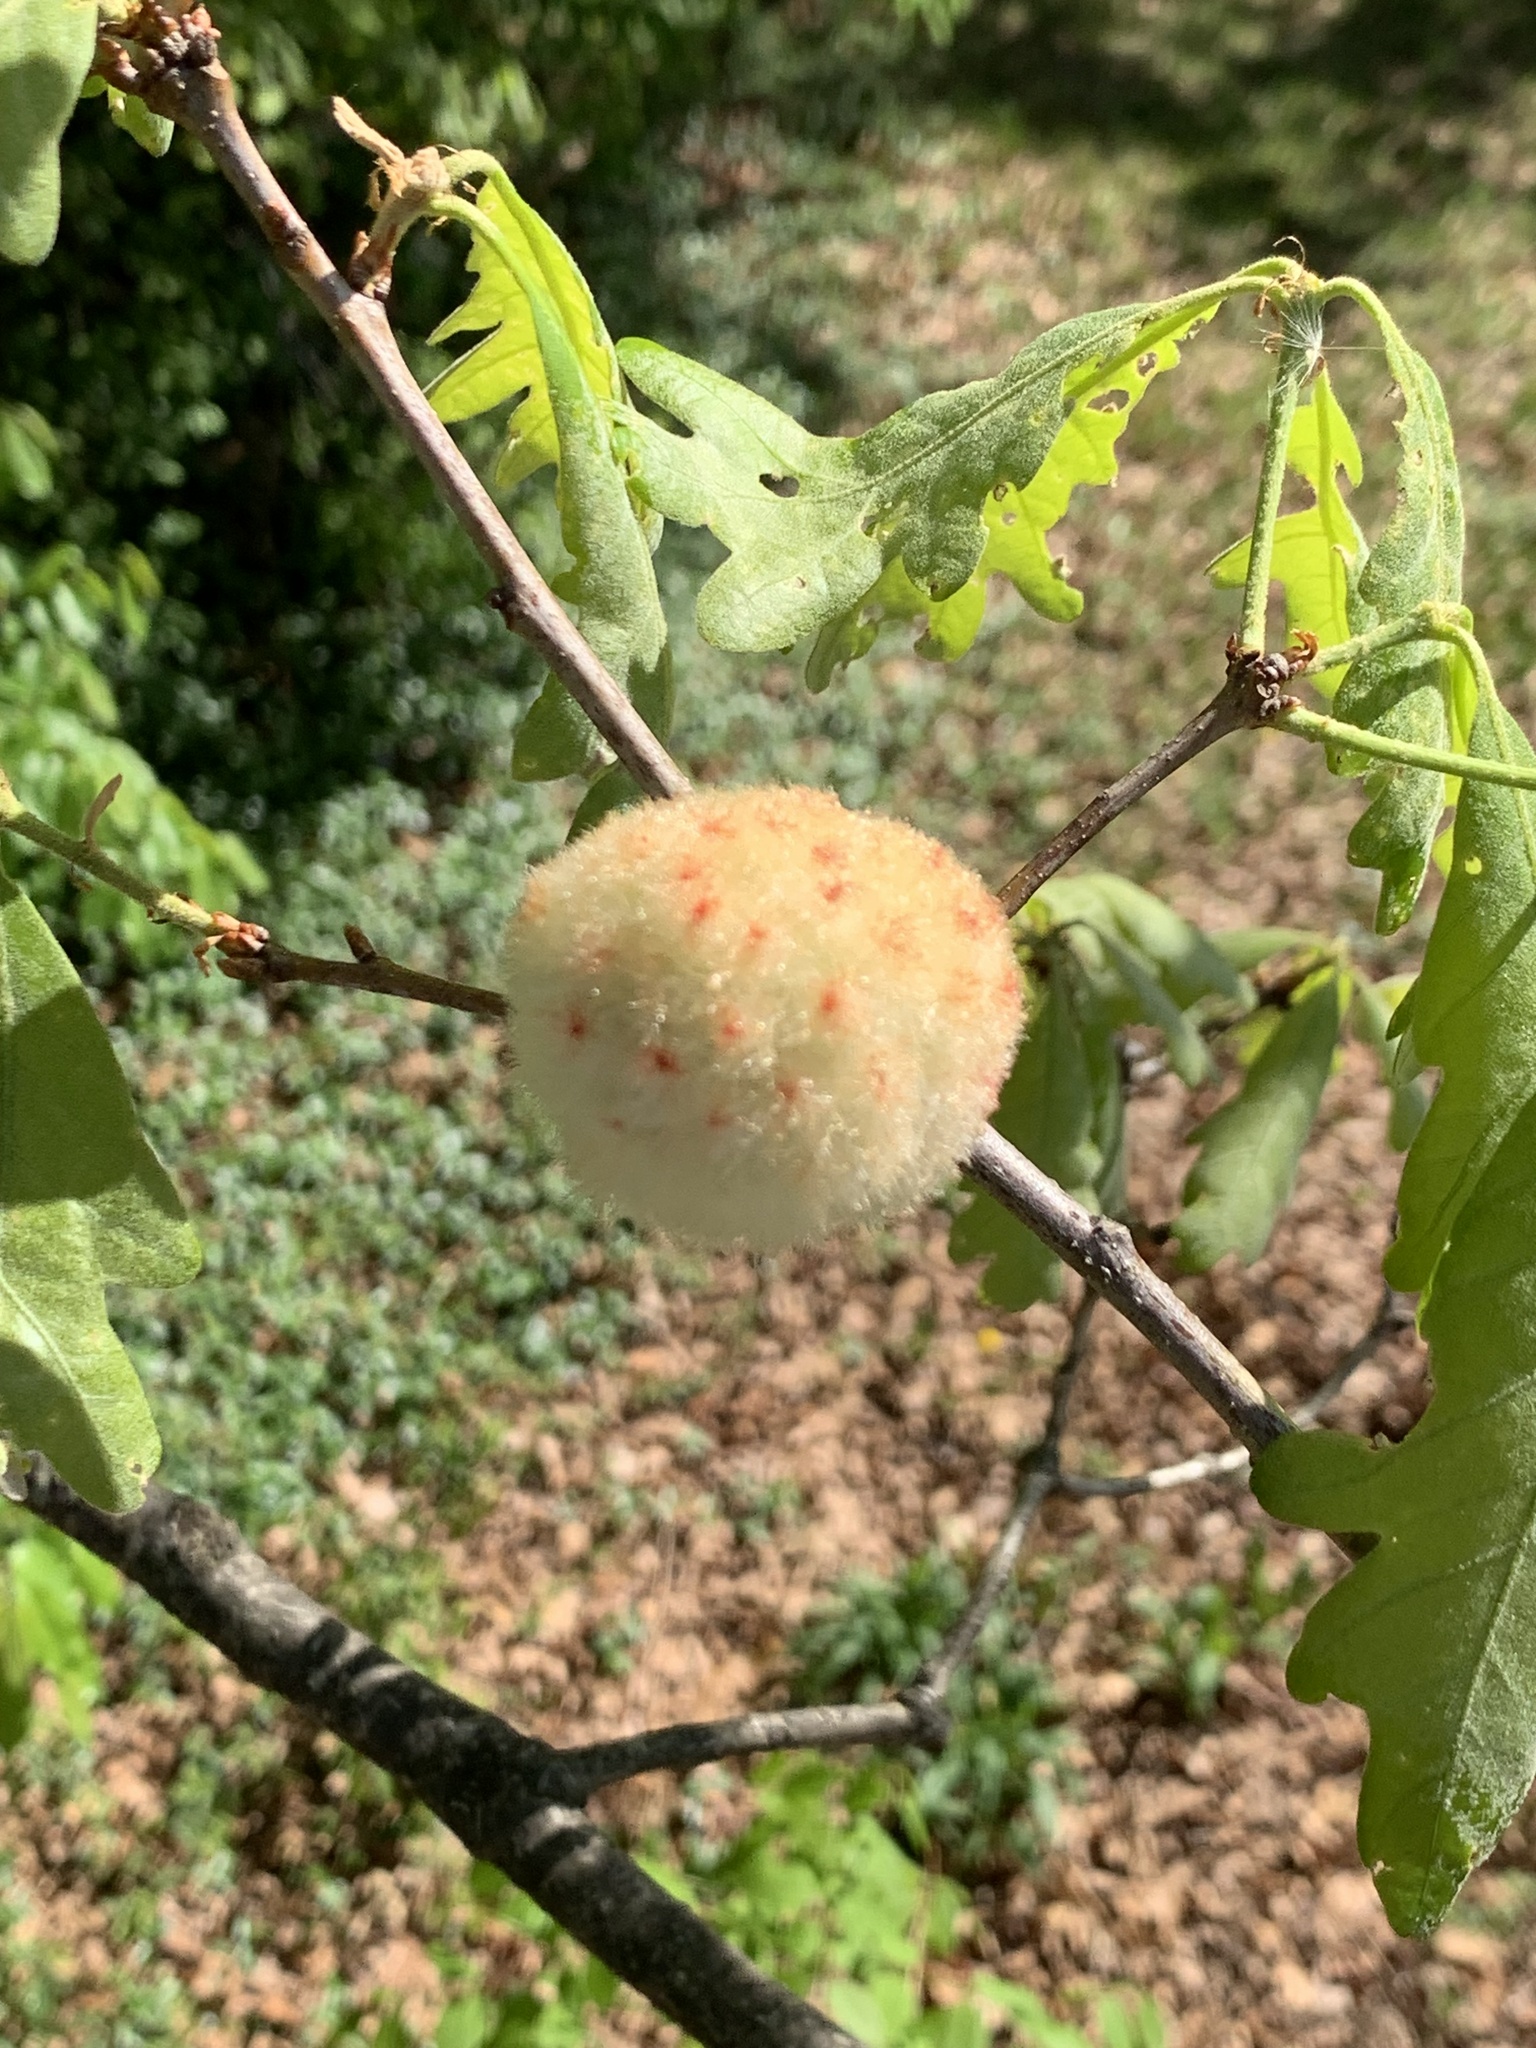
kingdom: Animalia
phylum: Arthropoda
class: Insecta
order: Hymenoptera
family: Cynipidae
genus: Callirhytis
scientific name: Callirhytis
